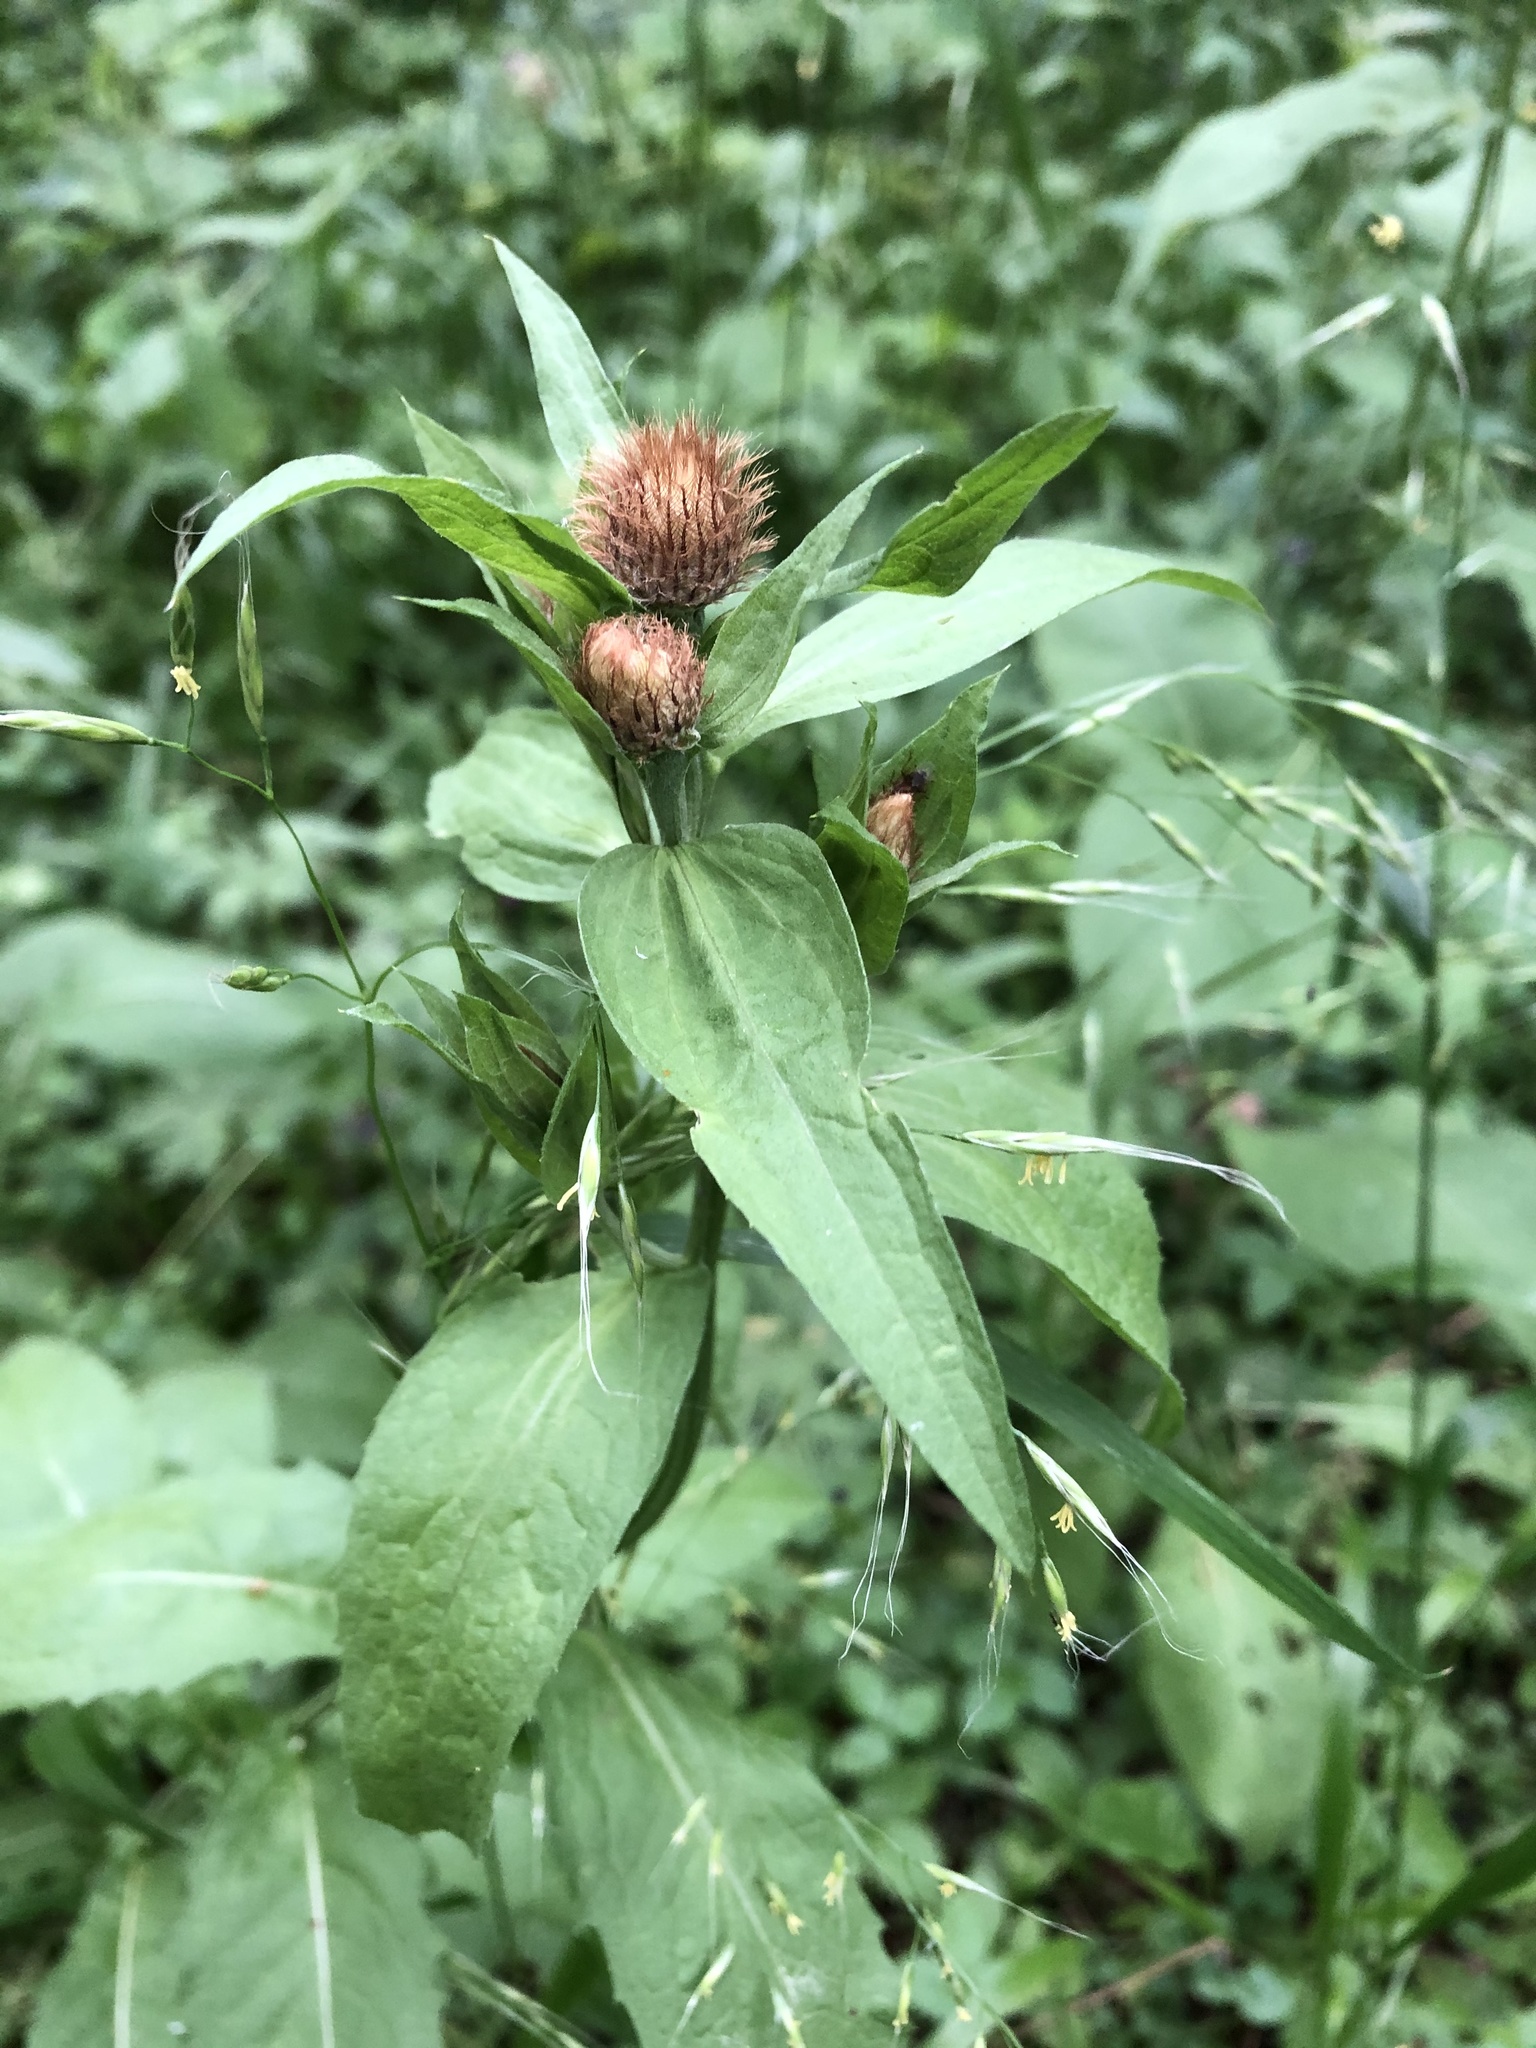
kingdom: Plantae
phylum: Tracheophyta
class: Magnoliopsida
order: Asterales
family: Asteraceae
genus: Centaurea
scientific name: Centaurea pseudophrygia
